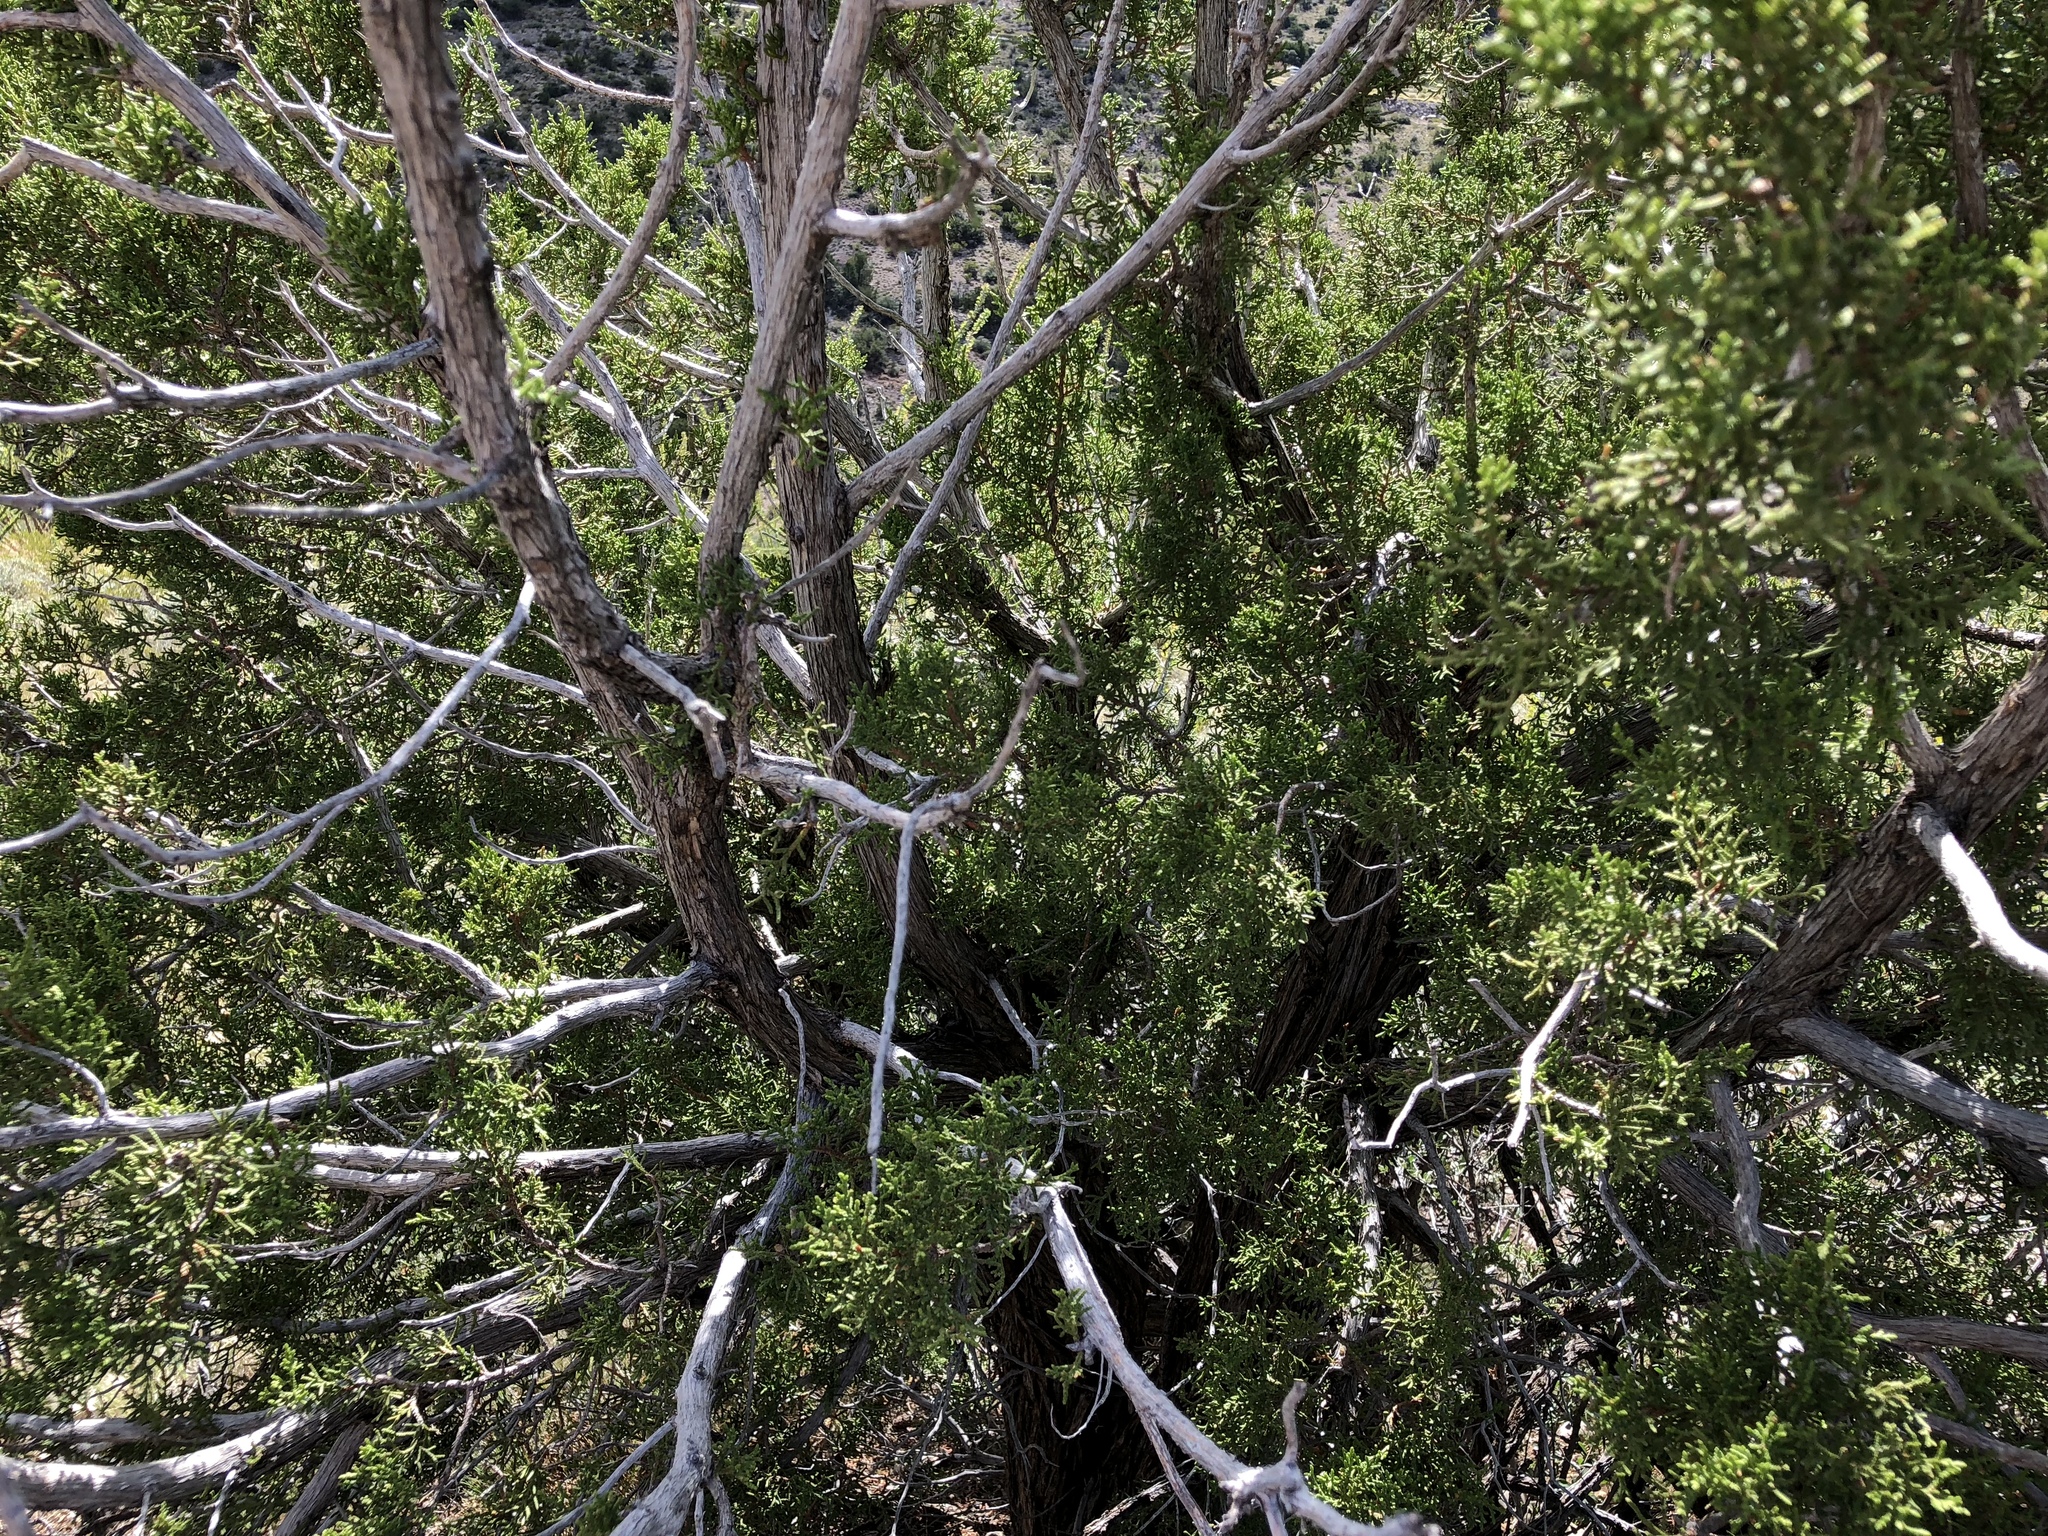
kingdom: Plantae
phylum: Tracheophyta
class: Pinopsida
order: Pinales
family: Cupressaceae
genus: Juniperus
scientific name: Juniperus monosperma
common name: One-seed juniper
